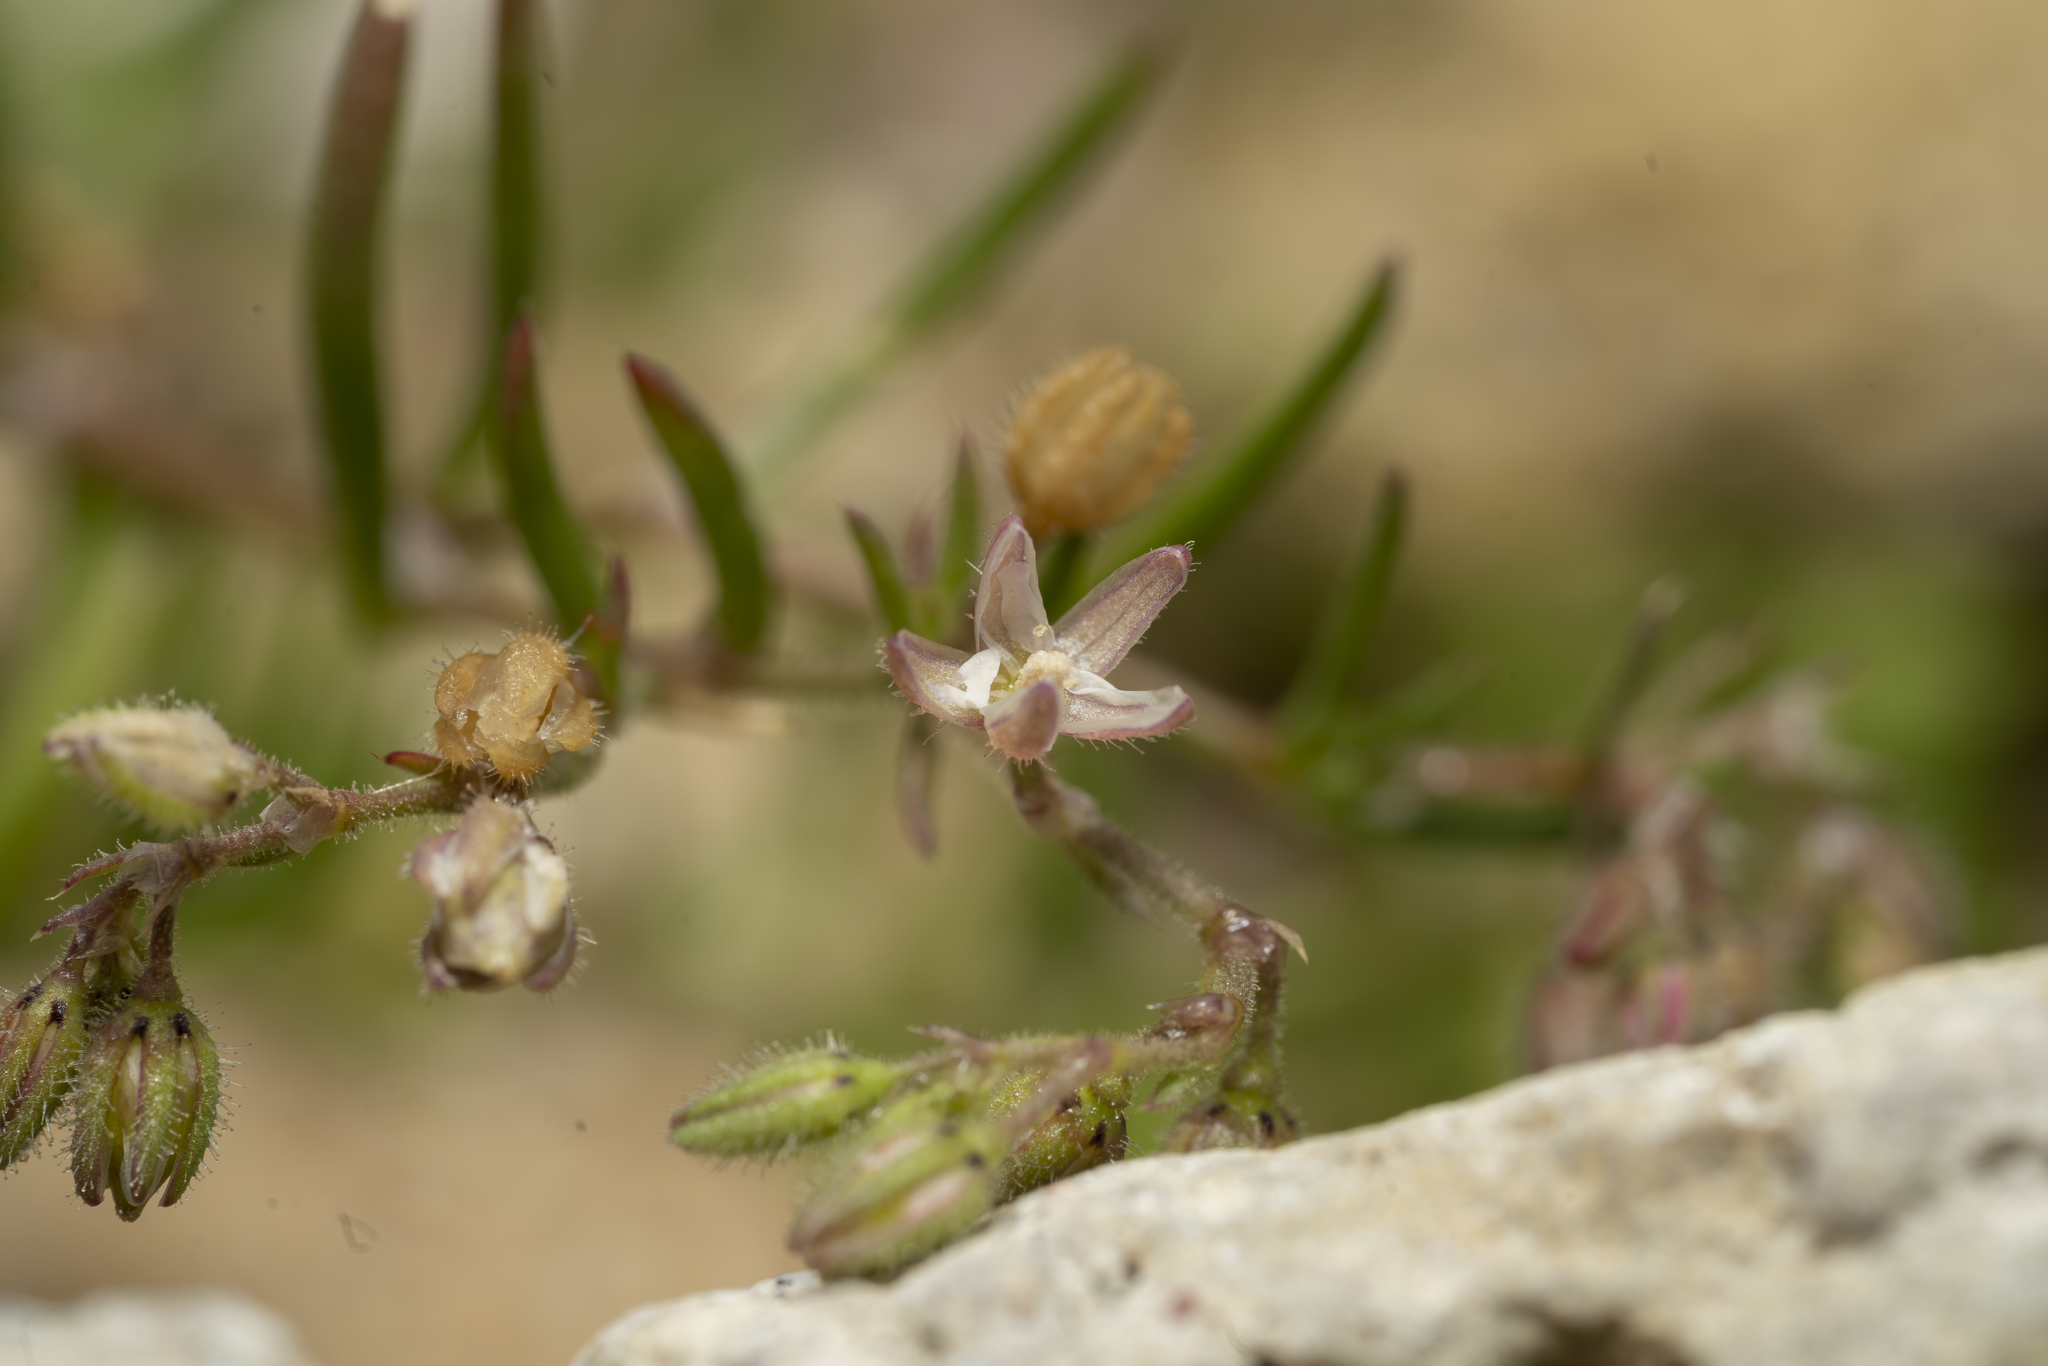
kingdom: Plantae
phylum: Tracheophyta
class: Magnoliopsida
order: Caryophyllales
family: Caryophyllaceae
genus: Spergularia
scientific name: Spergularia marina
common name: Lesser sea-spurrey
